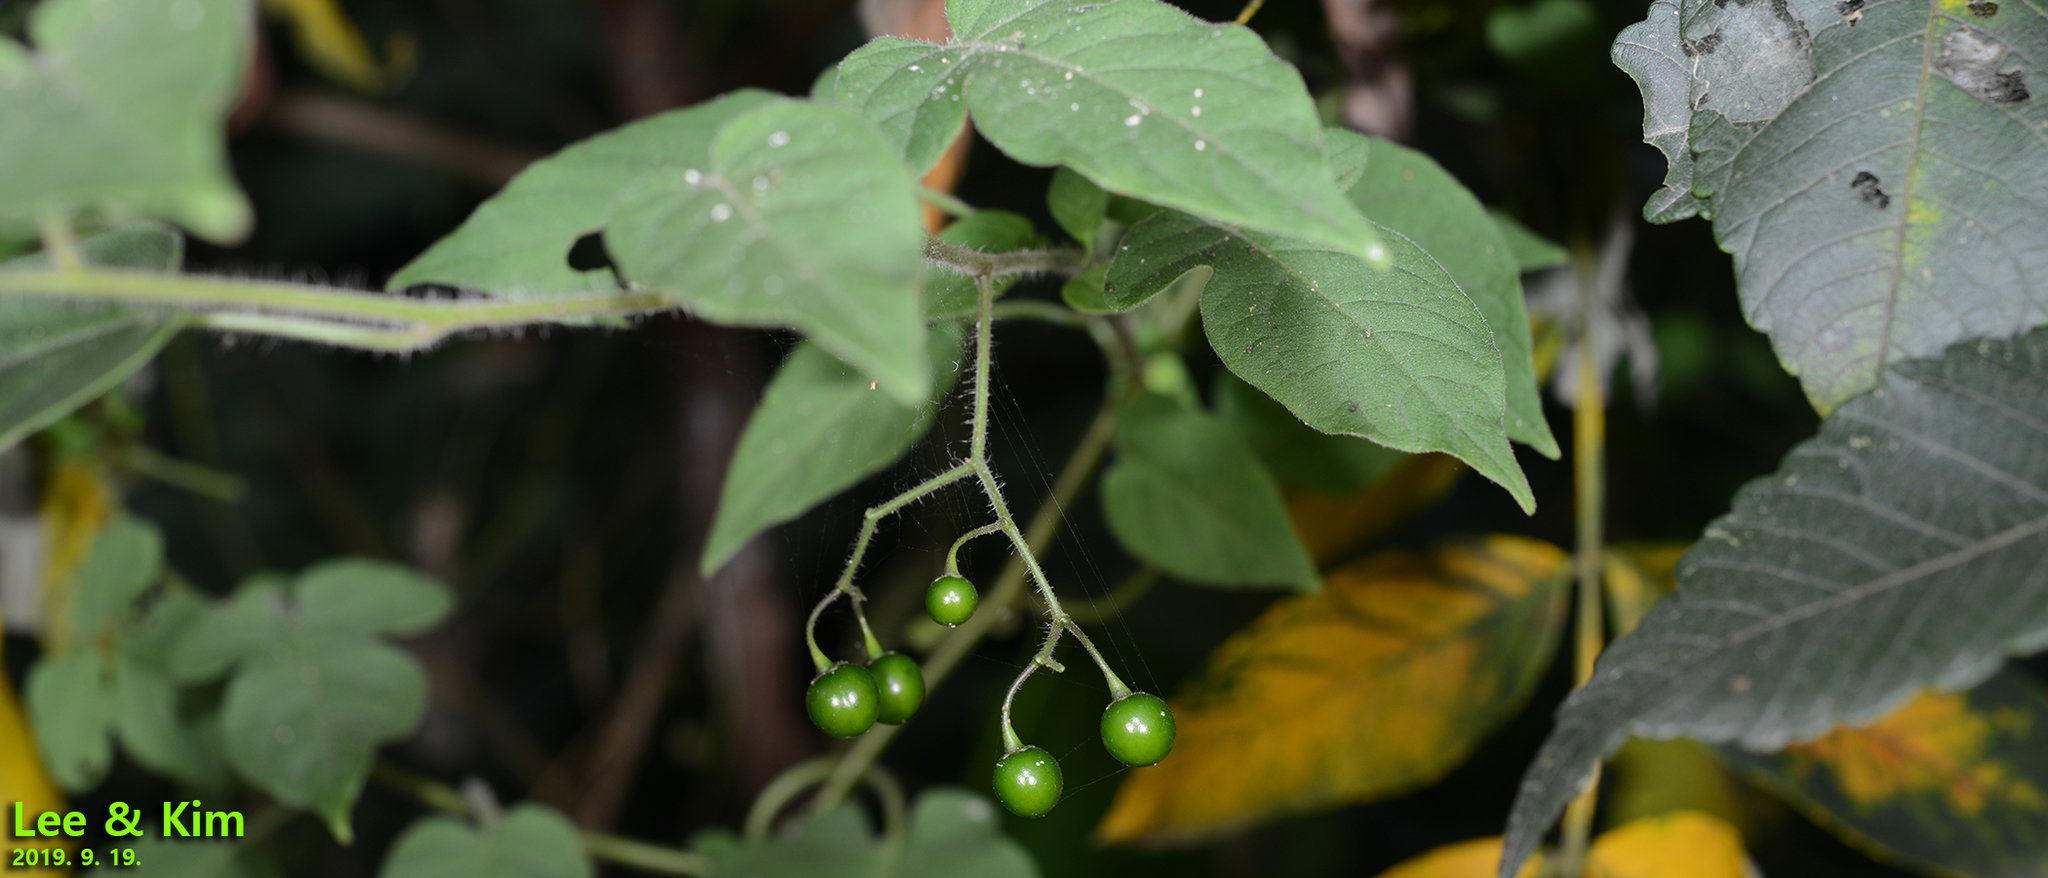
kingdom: Plantae
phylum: Tracheophyta
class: Magnoliopsida
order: Solanales
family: Solanaceae
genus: Solanum
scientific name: Solanum lyratum
